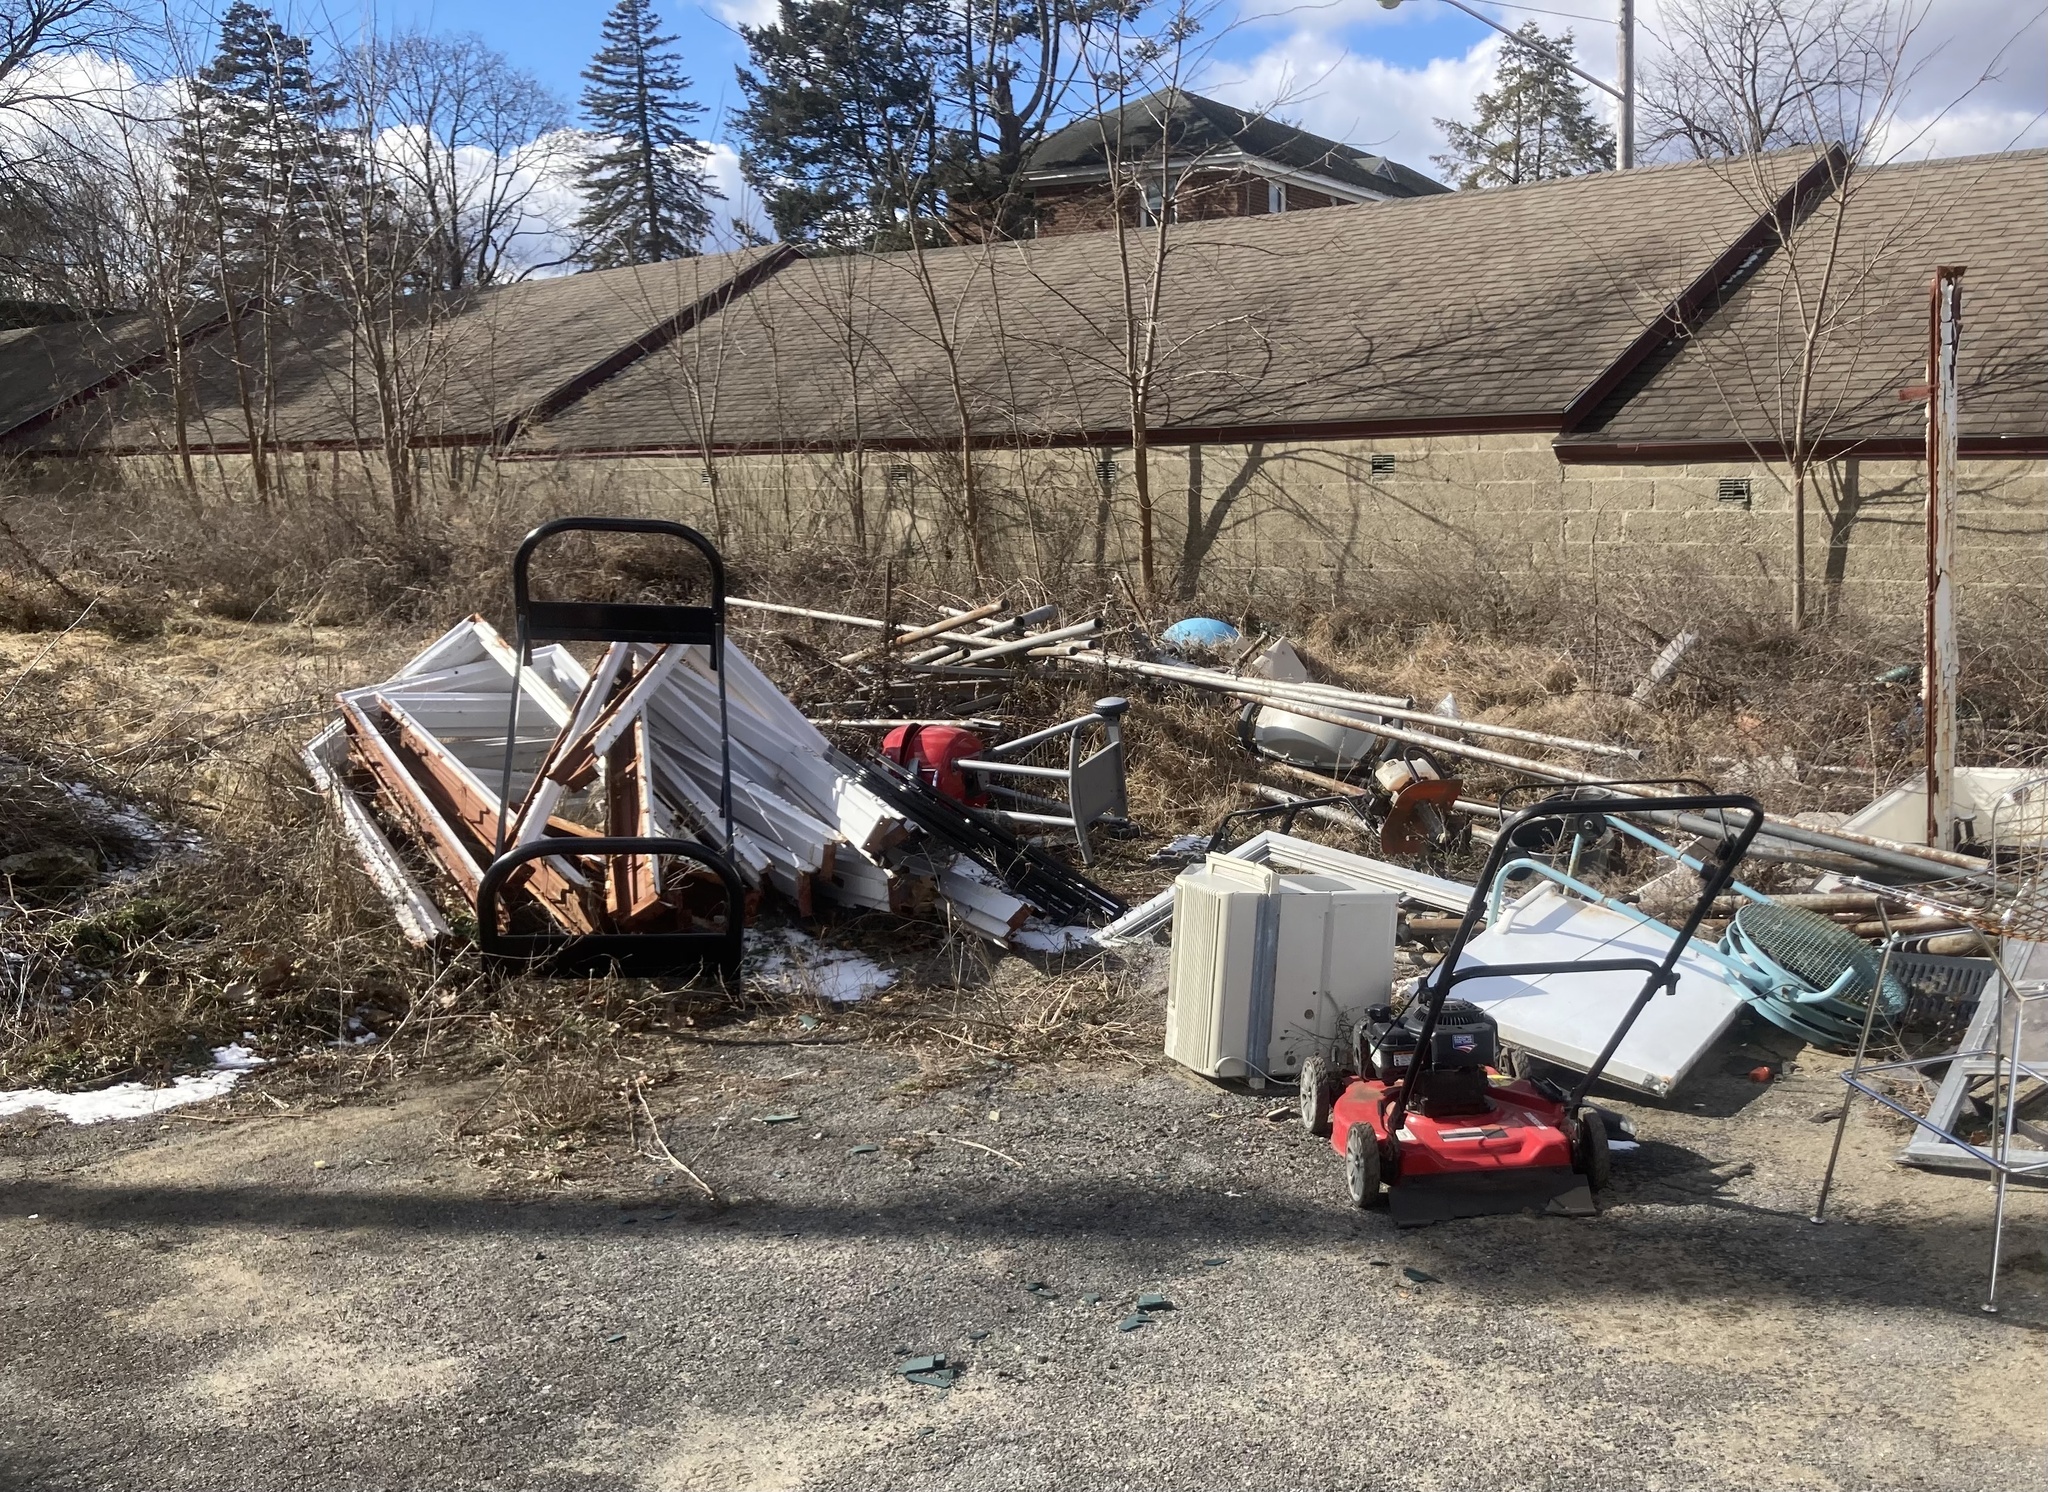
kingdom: Plantae
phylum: Tracheophyta
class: Magnoliopsida
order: Asterales
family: Asteraceae
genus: Centaurea
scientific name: Centaurea stoebe
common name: Spotted knapweed
